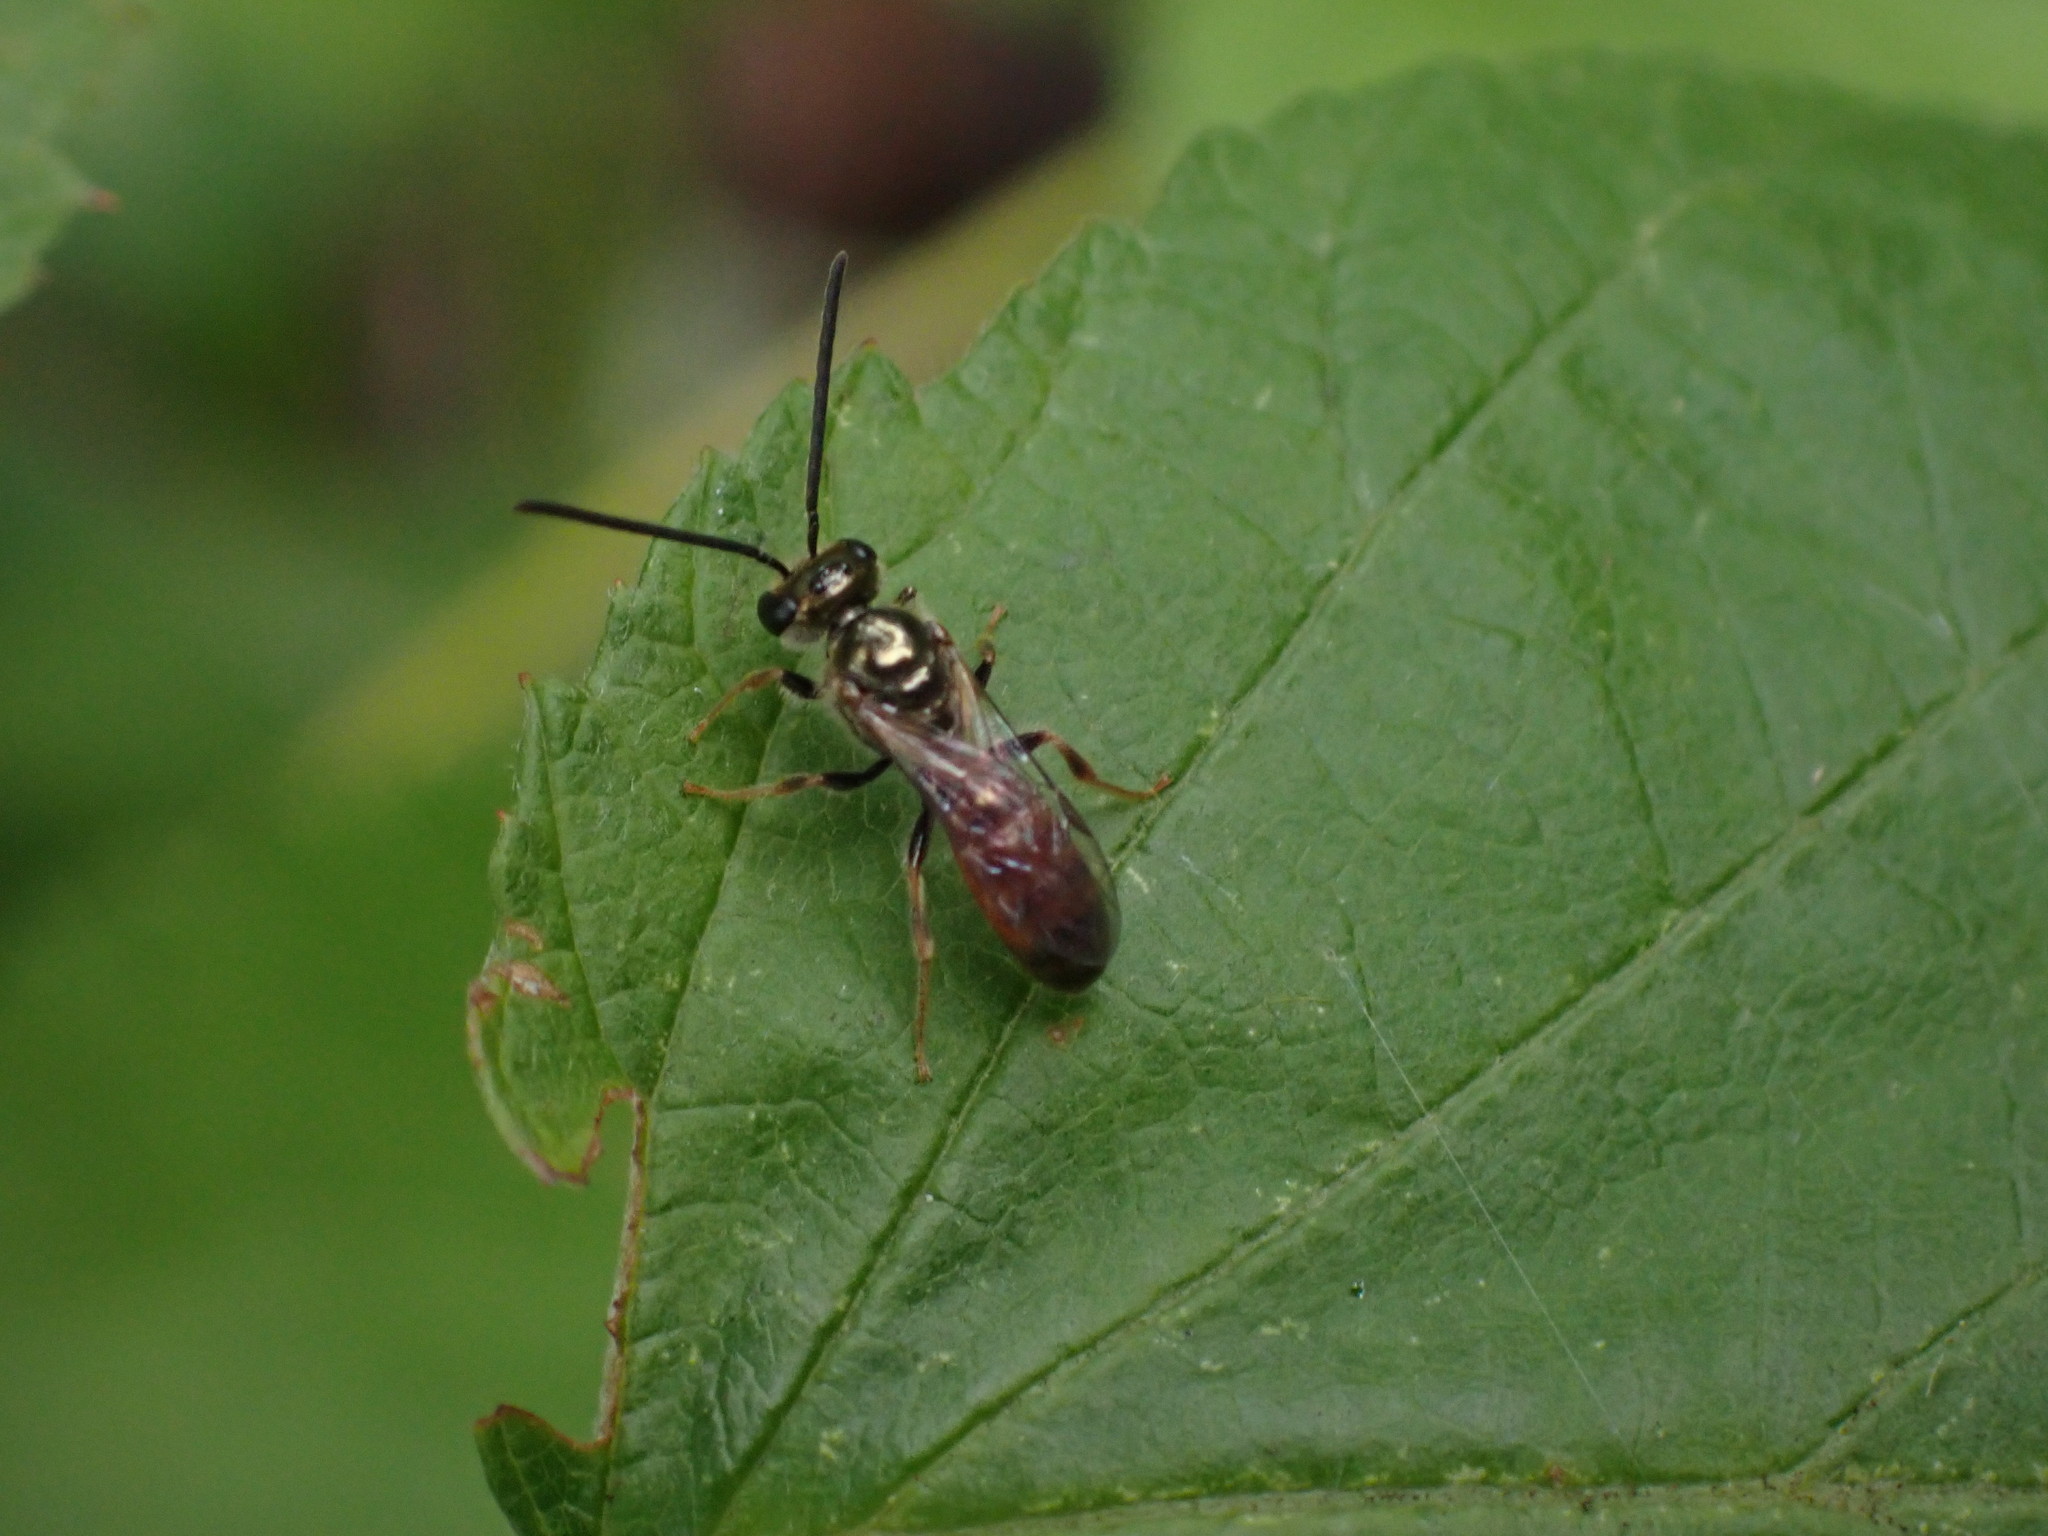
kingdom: Animalia
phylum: Arthropoda
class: Insecta
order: Hymenoptera
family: Halictidae
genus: Lasioglossum
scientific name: Lasioglossum zephyrum
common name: Zephyr sweat bee
